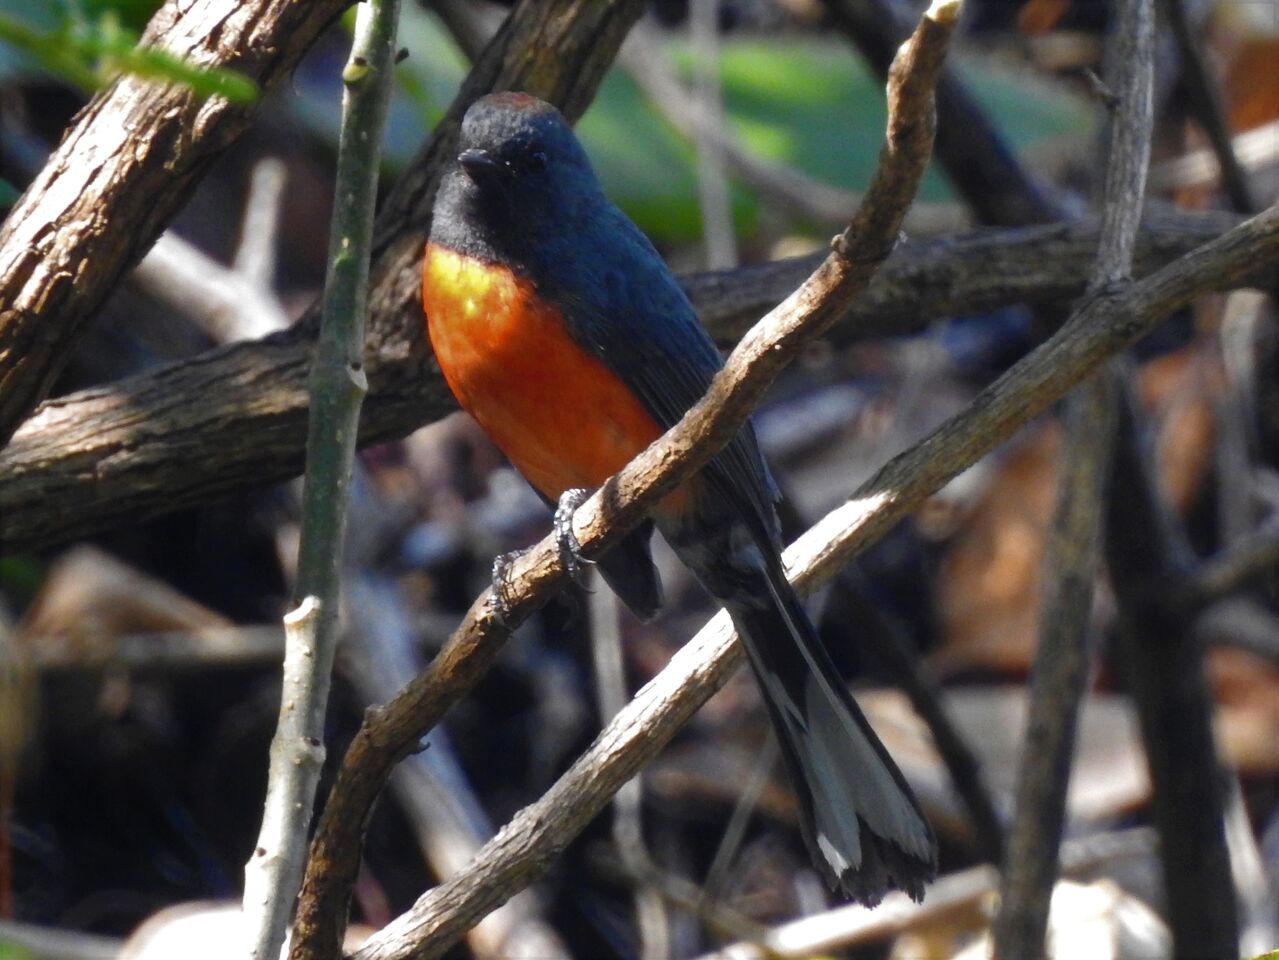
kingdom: Animalia
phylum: Chordata
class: Aves
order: Passeriformes
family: Parulidae
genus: Myioborus
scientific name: Myioborus miniatus
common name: Slate-throated redstart
